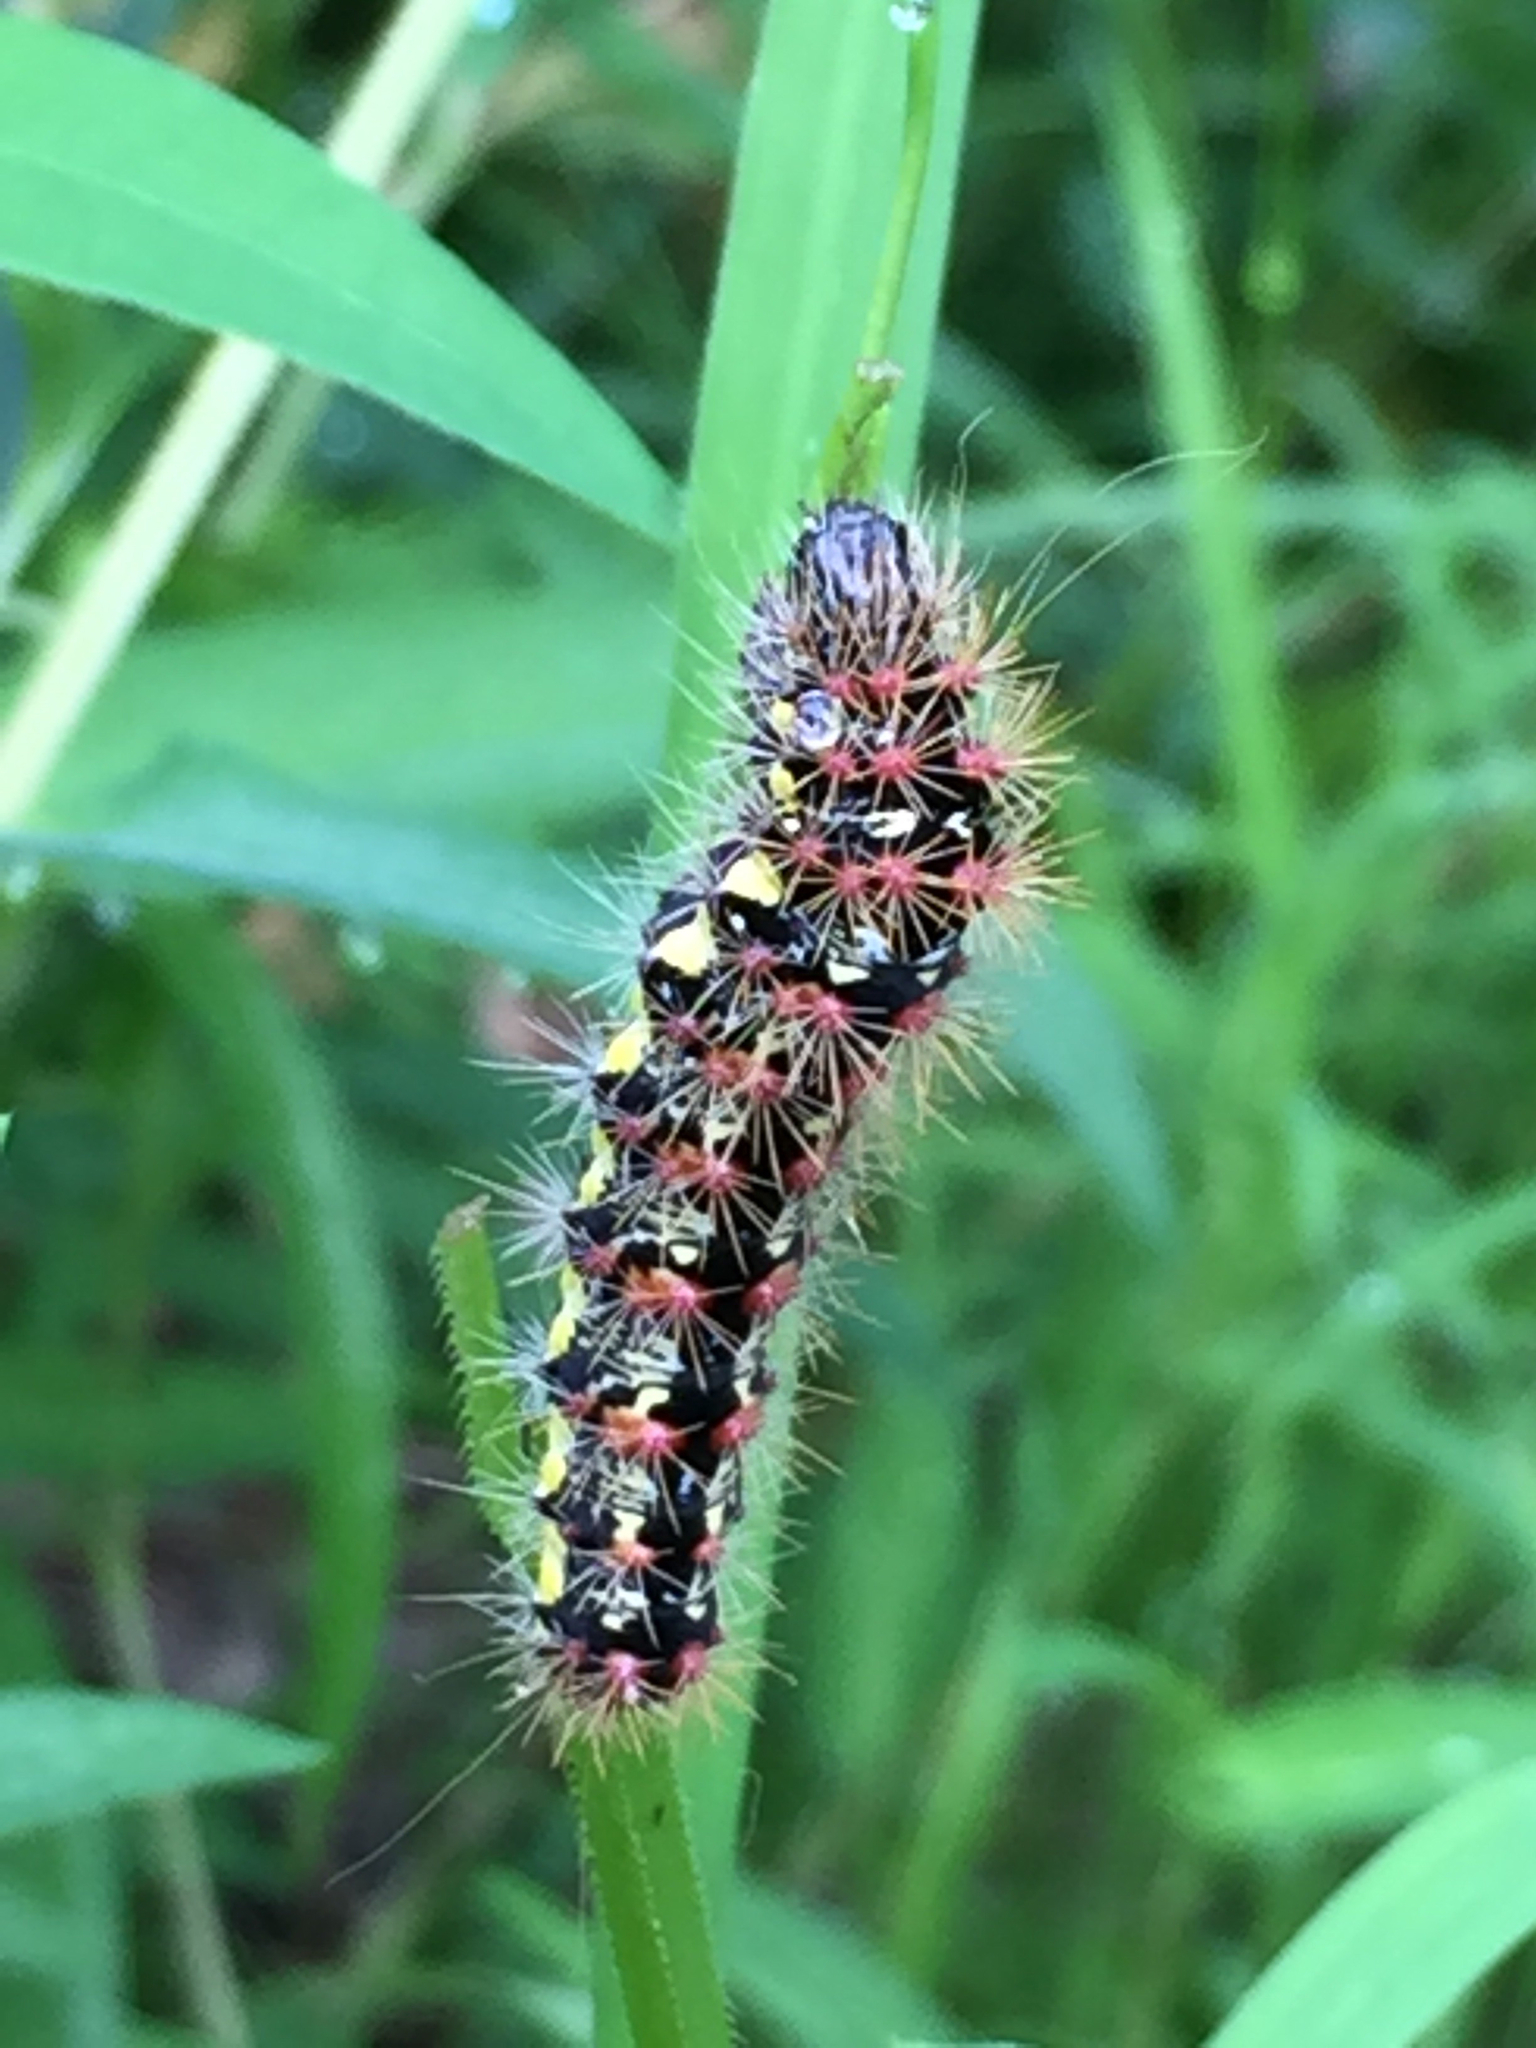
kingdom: Animalia
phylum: Arthropoda
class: Insecta
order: Lepidoptera
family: Noctuidae
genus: Acronicta
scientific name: Acronicta oblinita
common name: Smeared dagger
